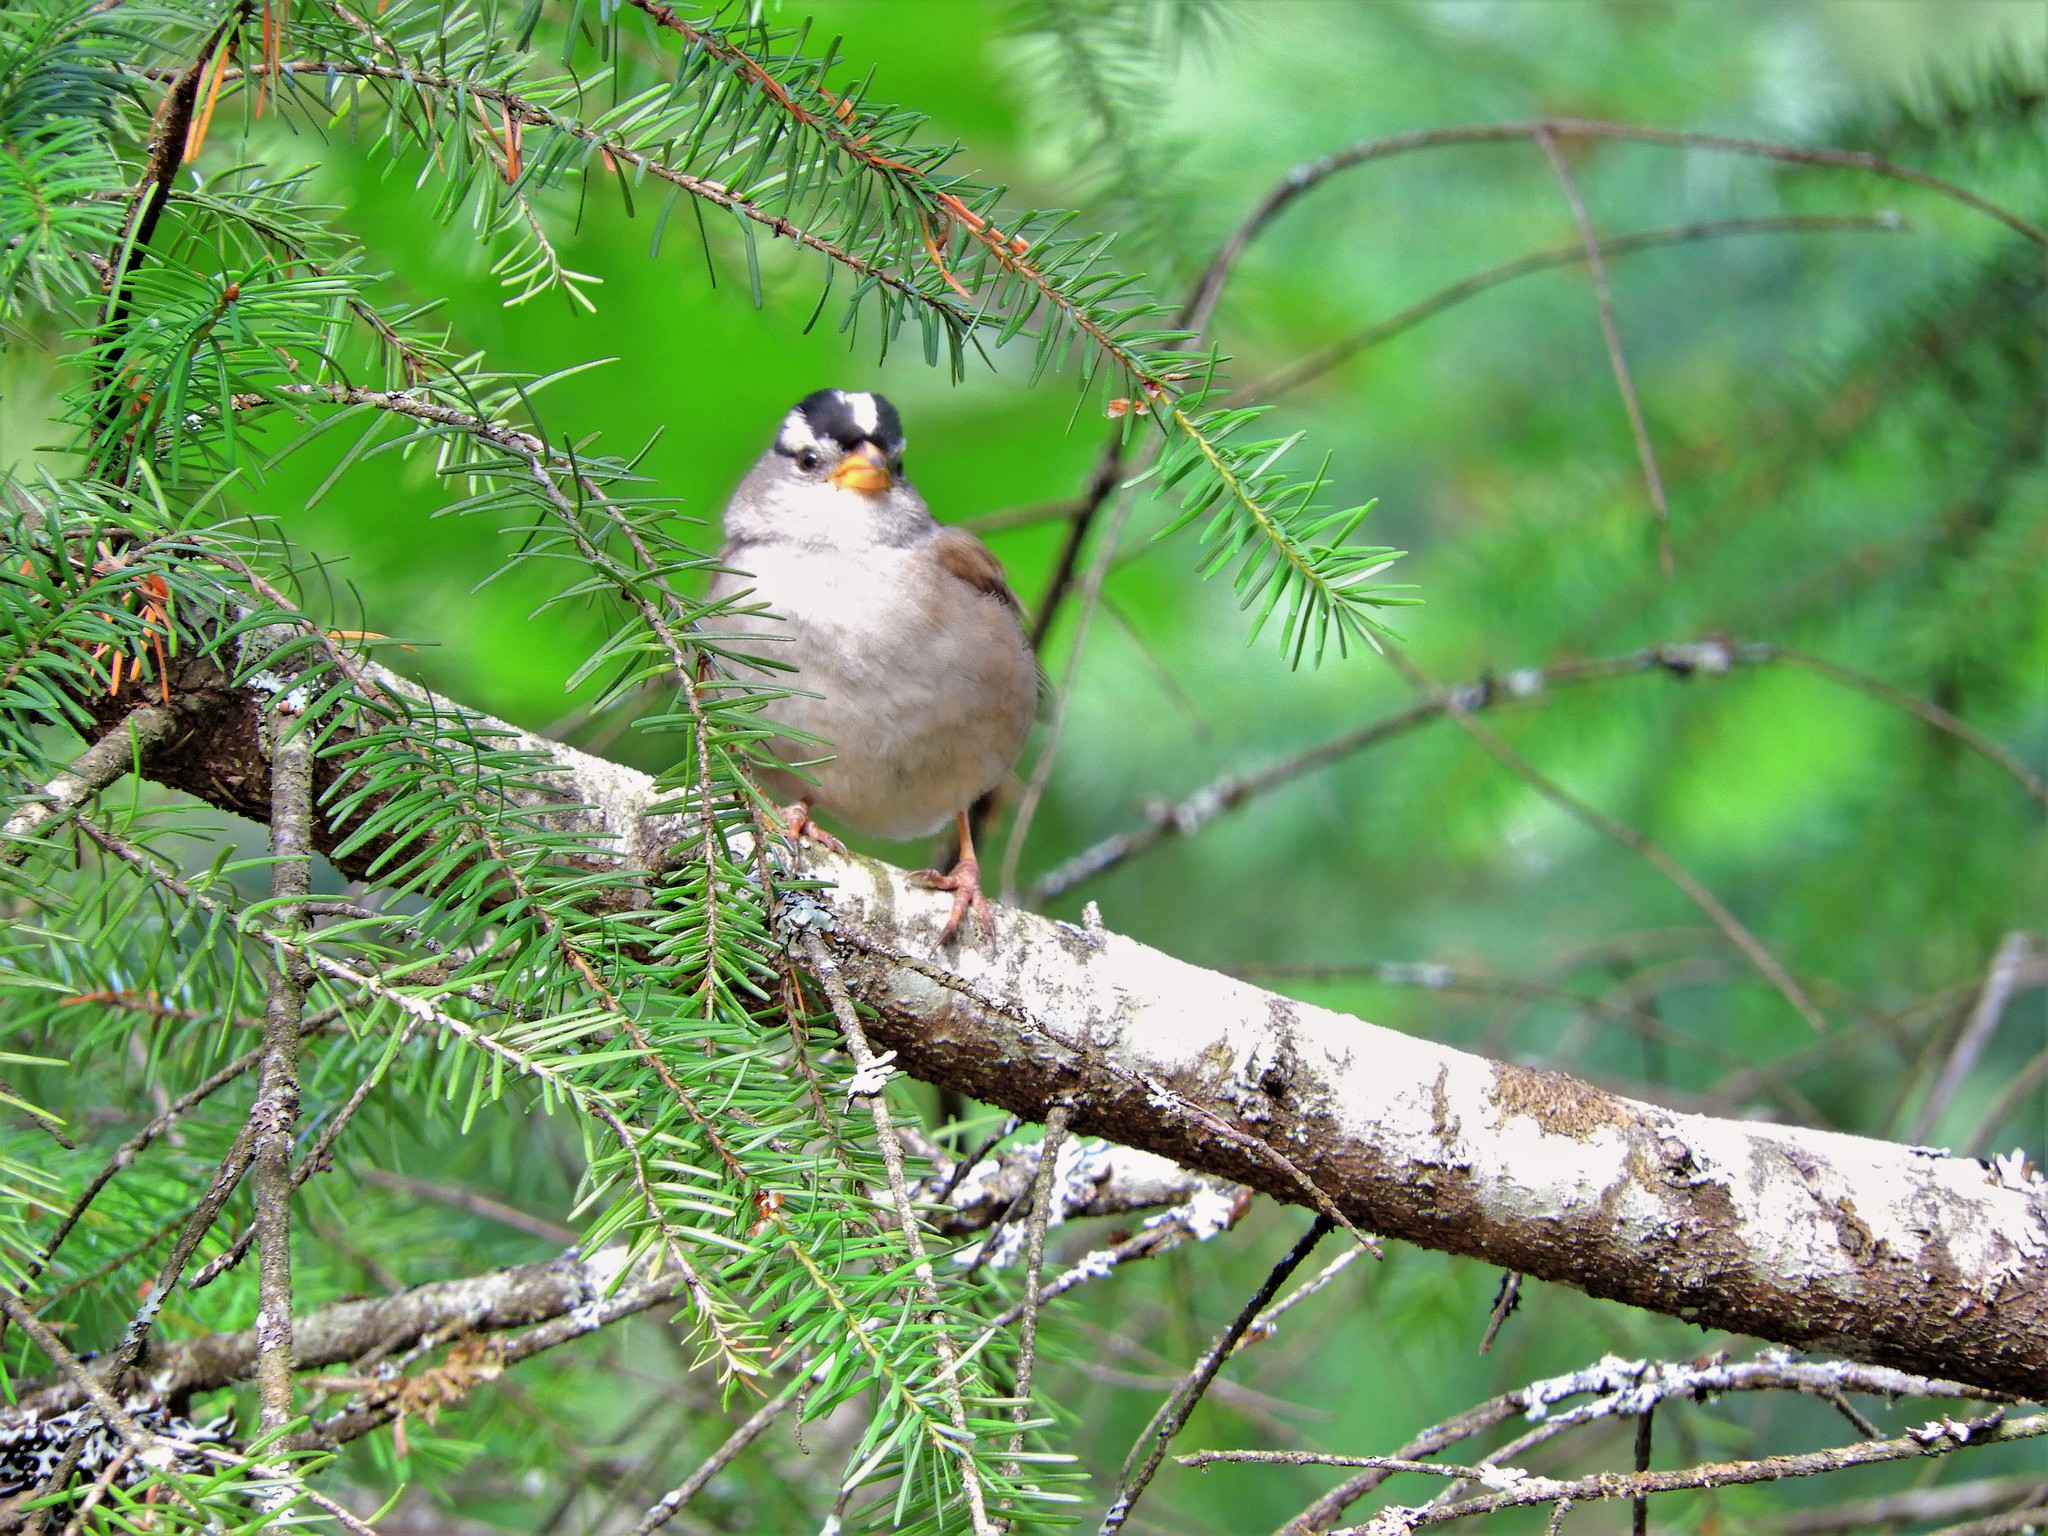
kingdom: Animalia
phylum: Chordata
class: Aves
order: Passeriformes
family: Passerellidae
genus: Zonotrichia
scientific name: Zonotrichia leucophrys
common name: White-crowned sparrow
